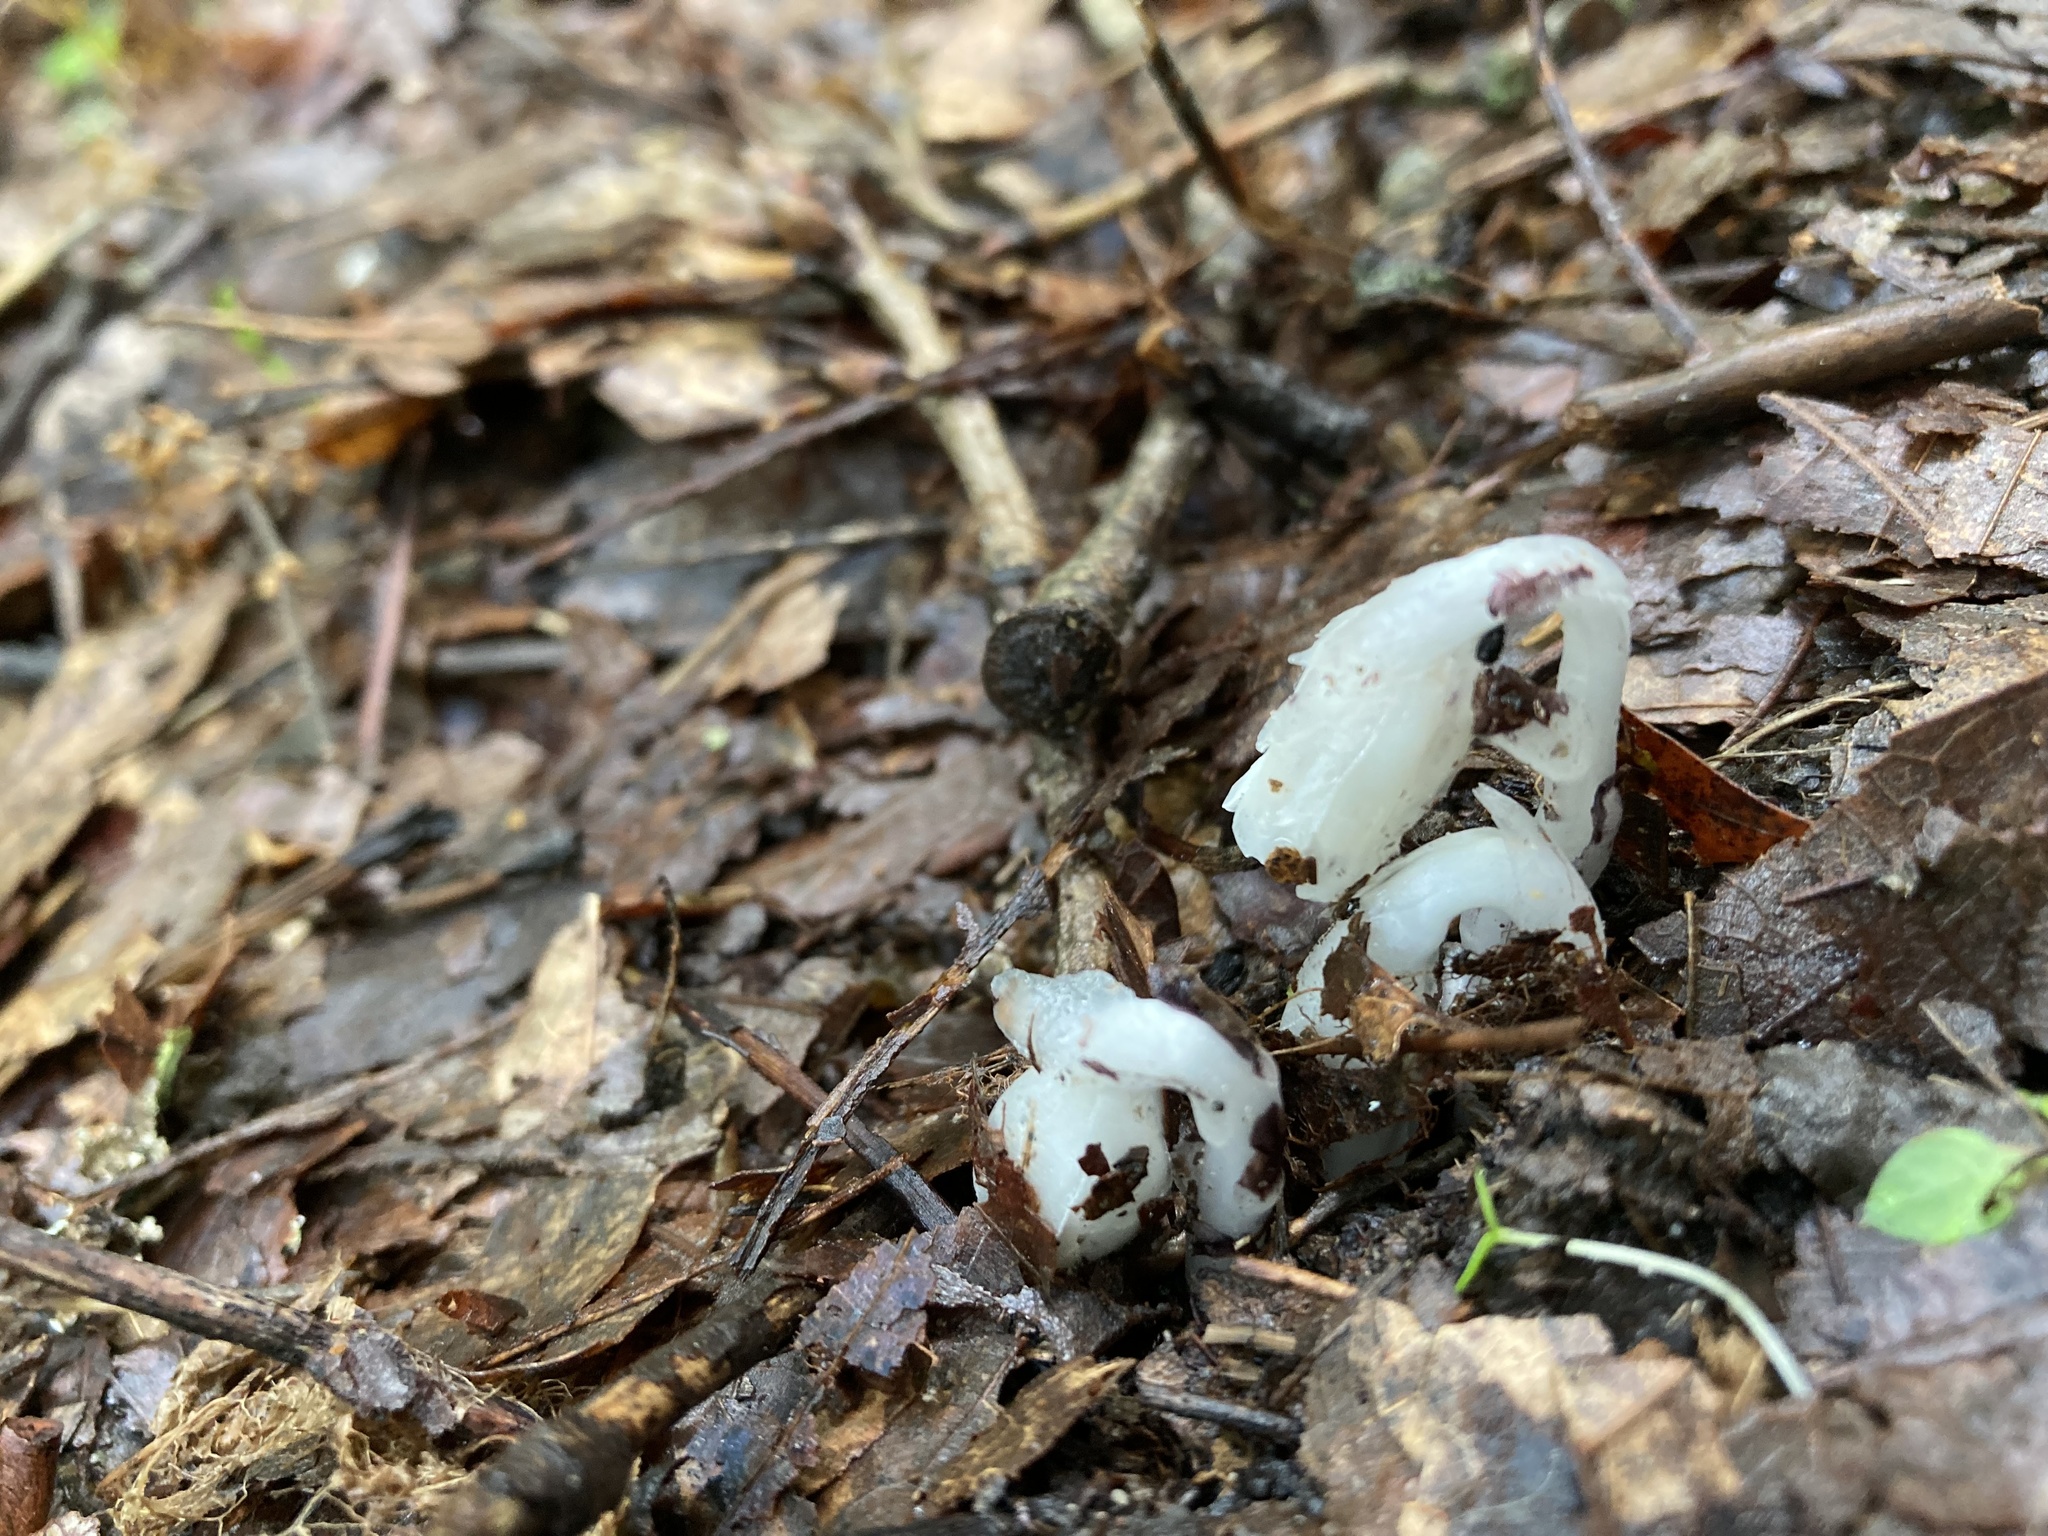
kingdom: Plantae
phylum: Tracheophyta
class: Magnoliopsida
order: Ericales
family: Ericaceae
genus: Monotropa
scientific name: Monotropa uniflora
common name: Convulsion root
